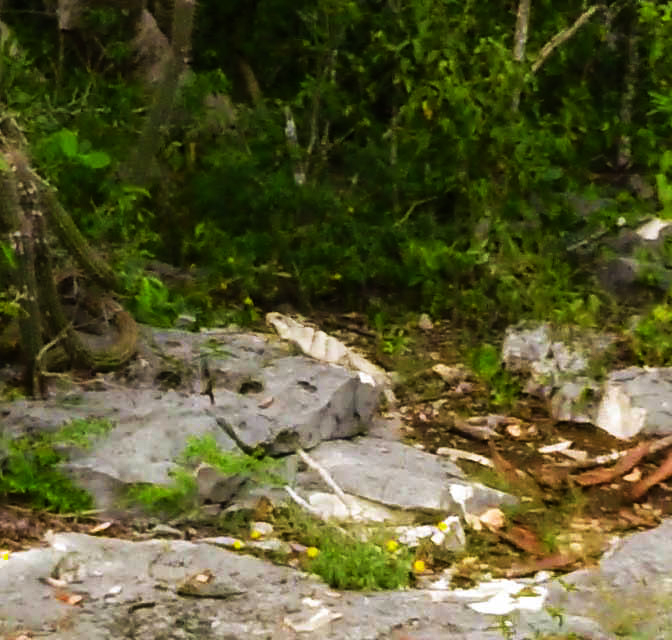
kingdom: Animalia
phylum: Chordata
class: Squamata
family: Iguanidae
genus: Ctenosaura
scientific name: Ctenosaura similis
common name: Black spiny-tailed iguana
